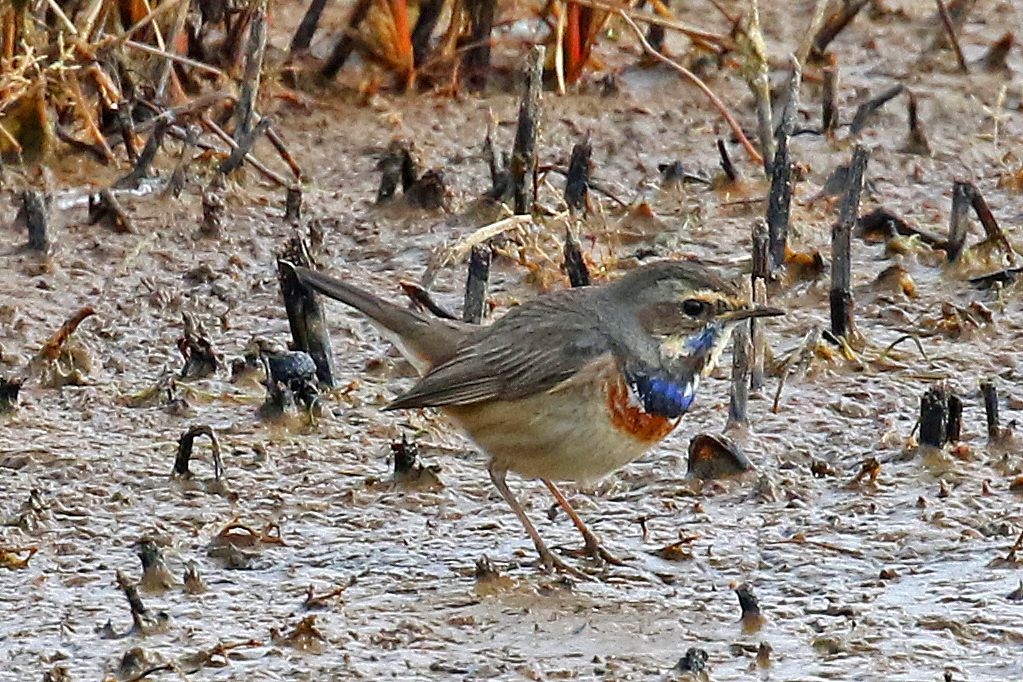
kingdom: Animalia
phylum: Chordata
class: Aves
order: Passeriformes
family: Muscicapidae
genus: Luscinia
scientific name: Luscinia svecica
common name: Bluethroat
